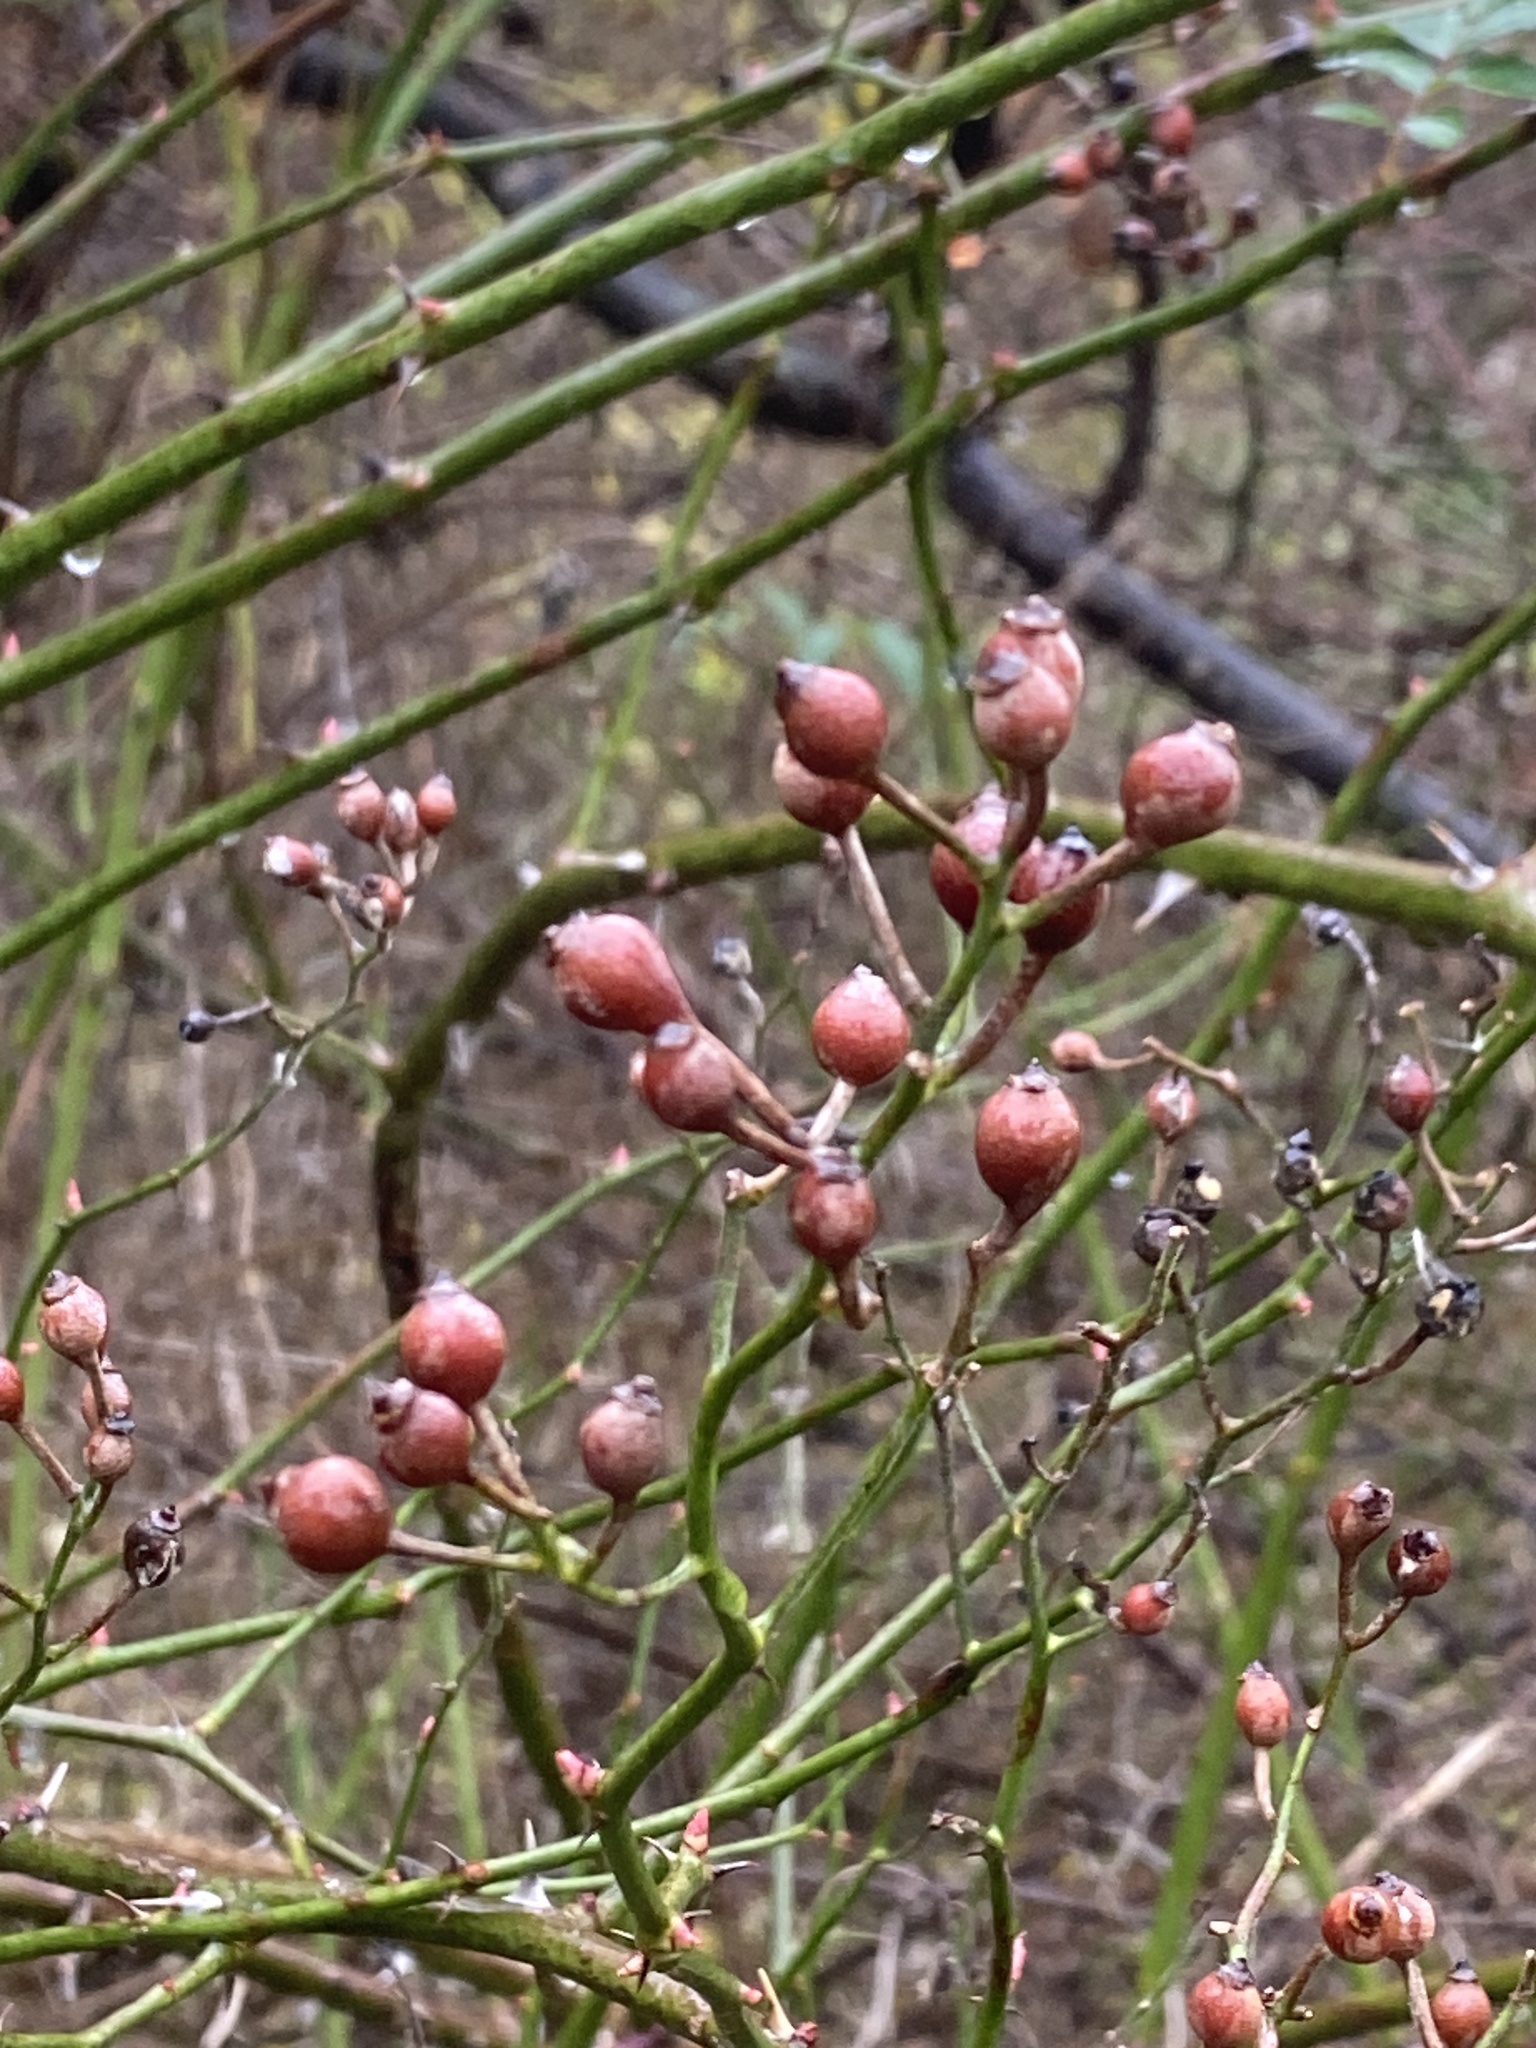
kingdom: Plantae
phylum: Tracheophyta
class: Magnoliopsida
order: Rosales
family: Rosaceae
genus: Rosa
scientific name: Rosa multiflora
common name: Multiflora rose
